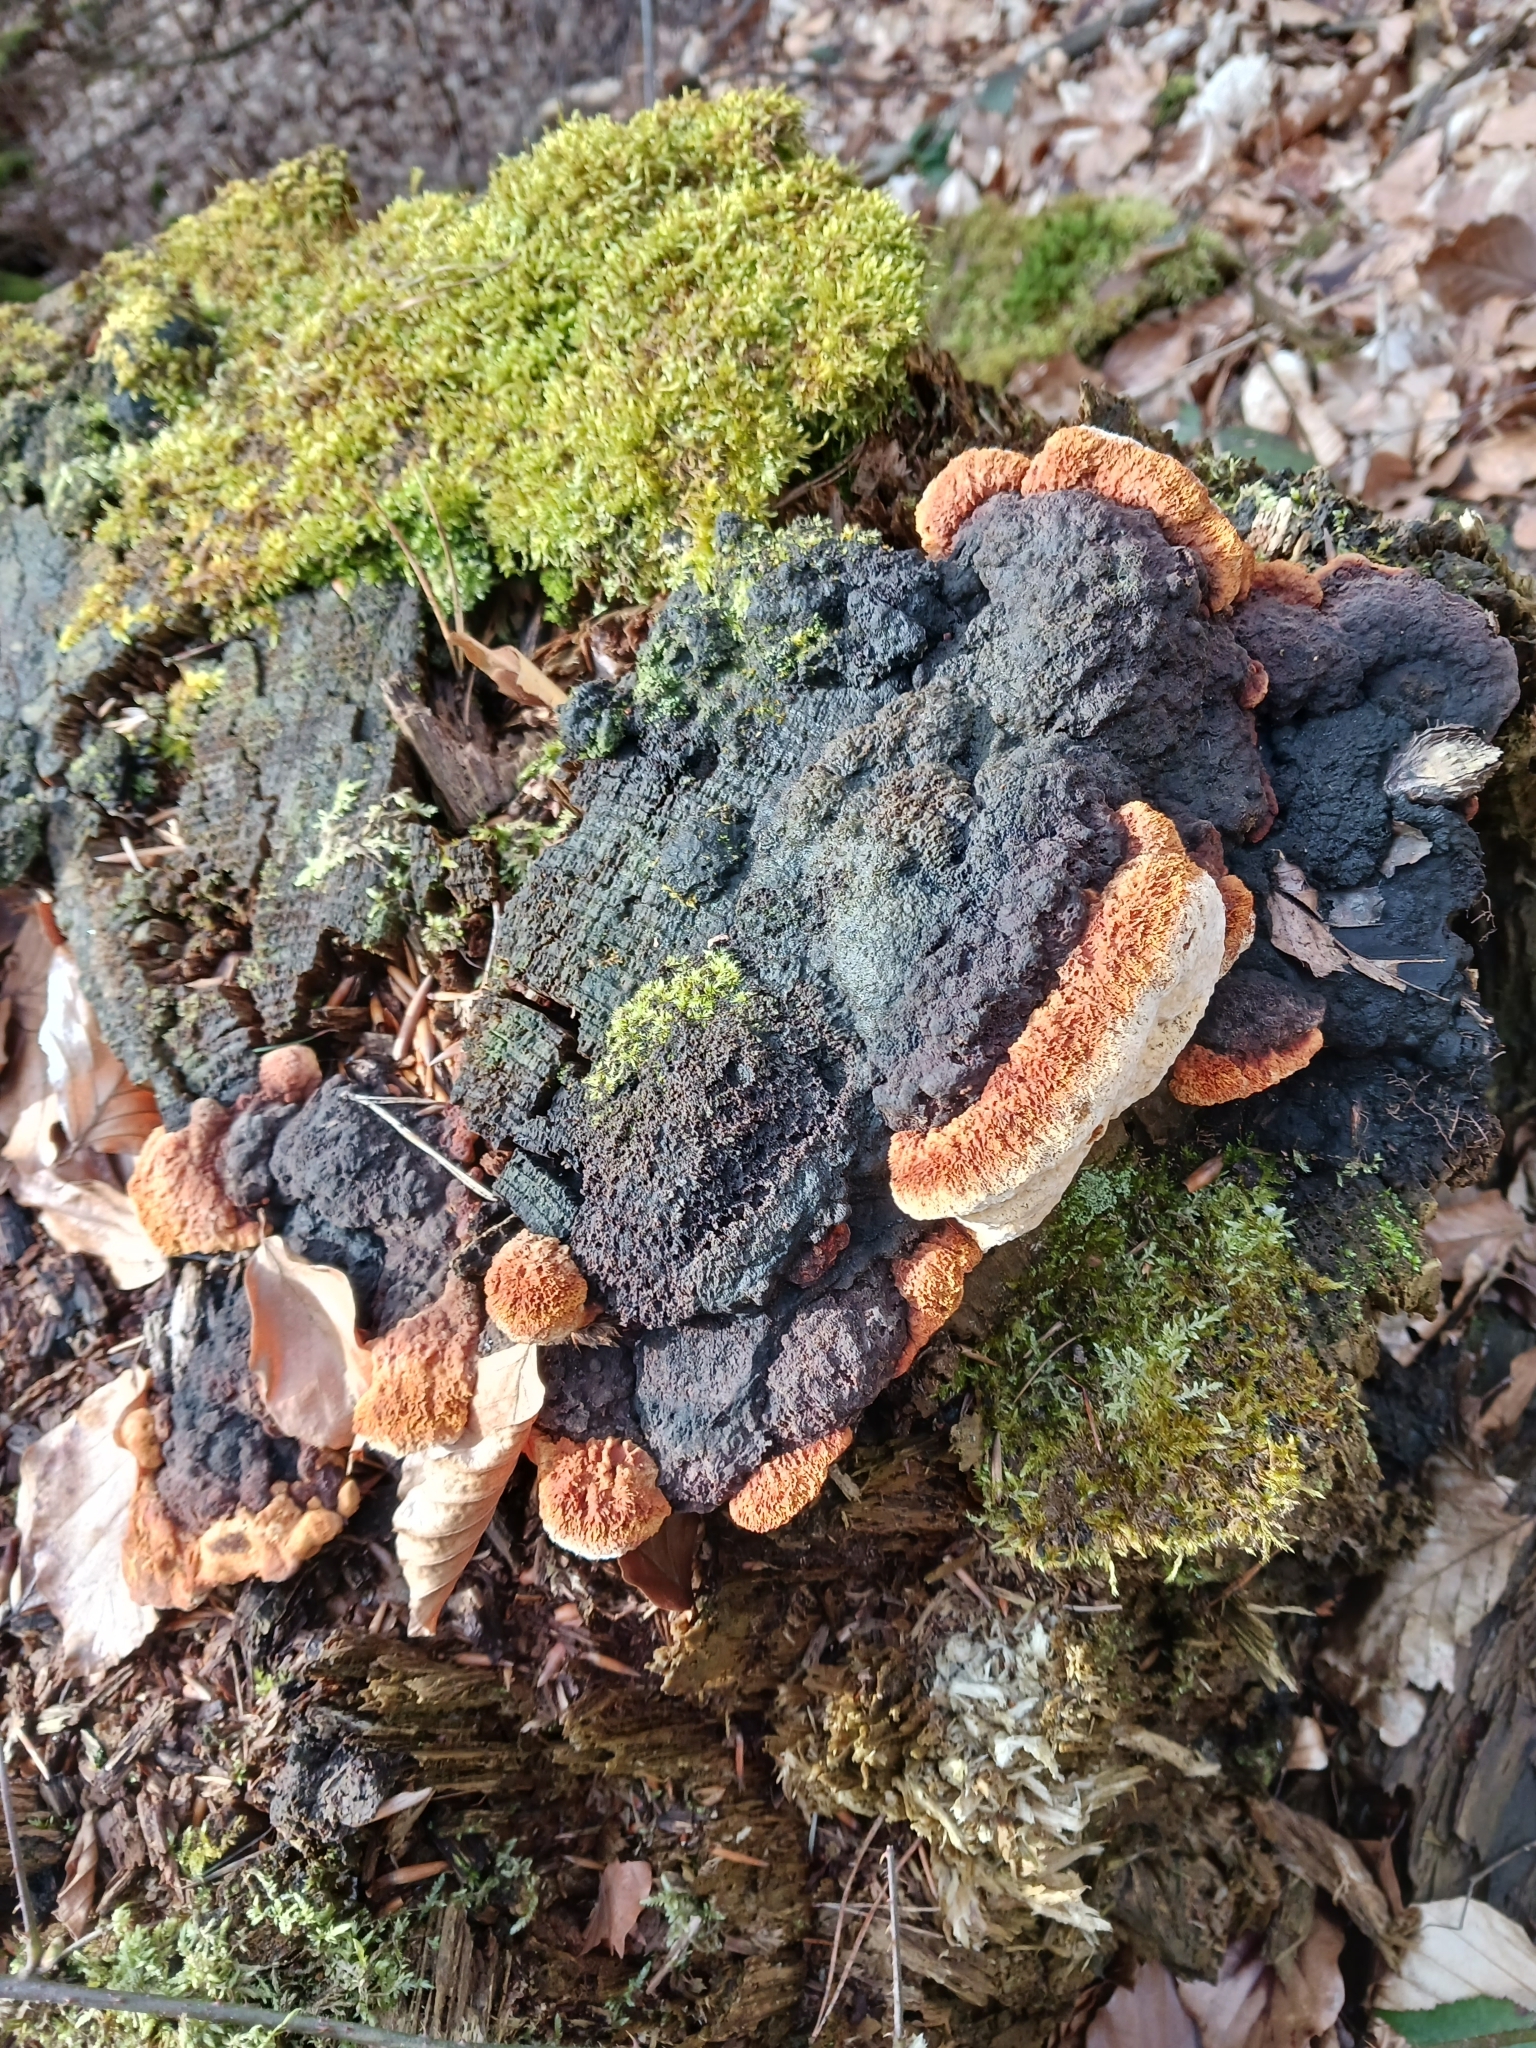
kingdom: Fungi
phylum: Basidiomycota
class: Agaricomycetes
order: Gloeophyllales
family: Gloeophyllaceae
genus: Gloeophyllum
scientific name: Gloeophyllum odoratum
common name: Anise mazegill
